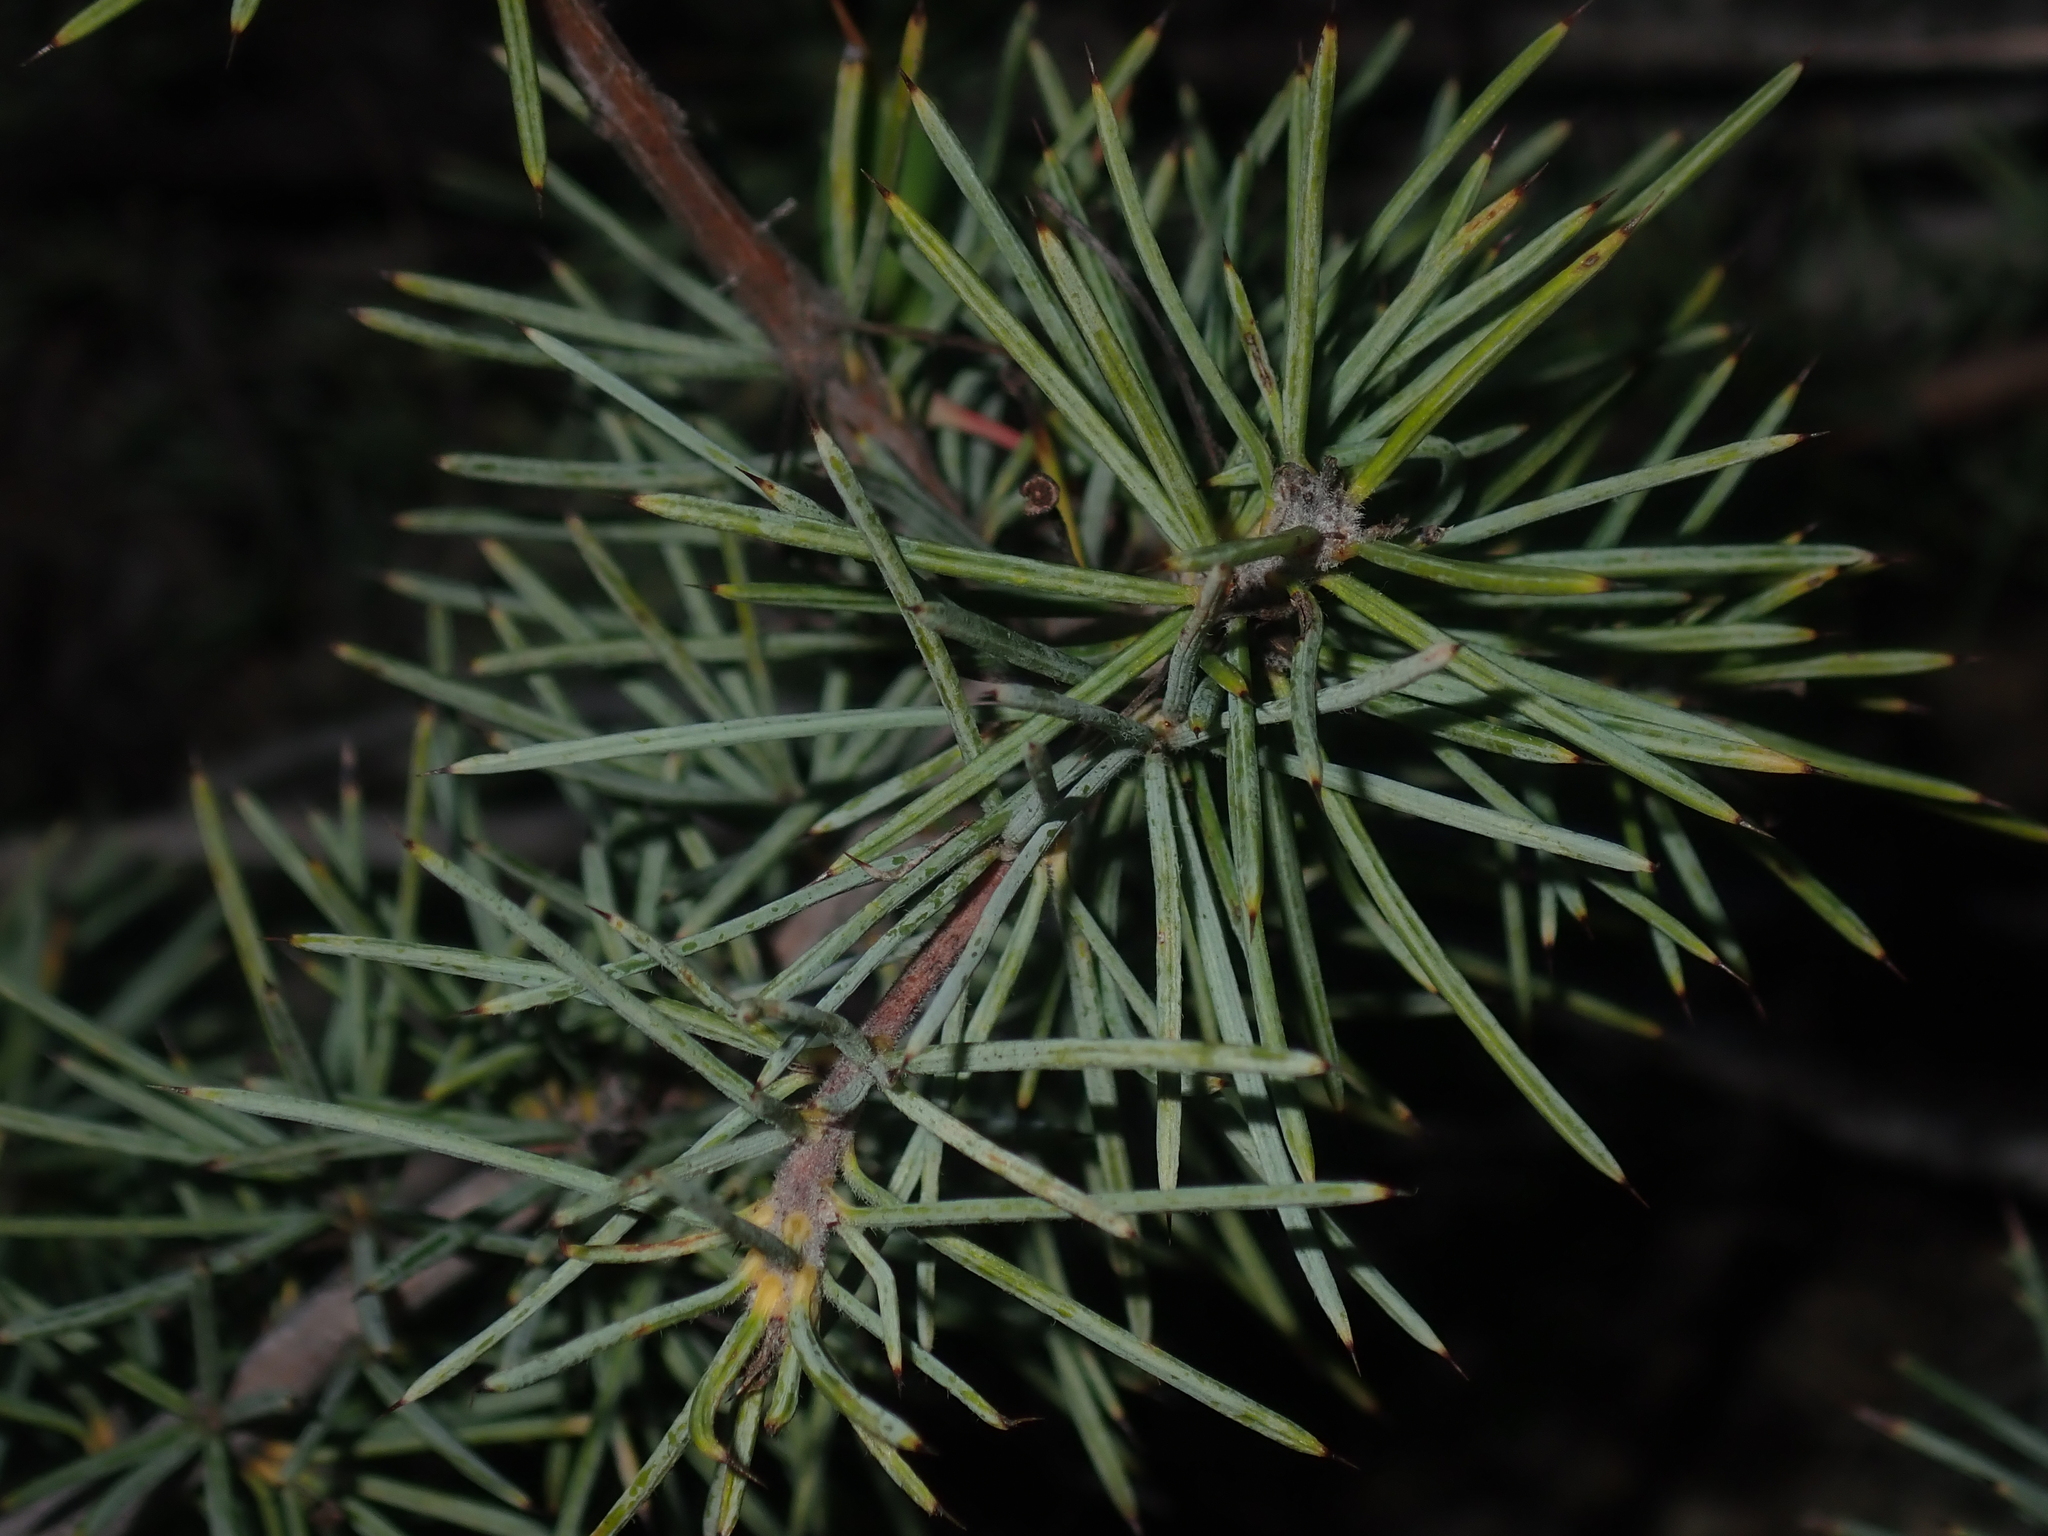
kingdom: Plantae
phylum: Tracheophyta
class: Magnoliopsida
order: Proteales
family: Proteaceae
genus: Persoonia
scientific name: Persoonia acicularis
